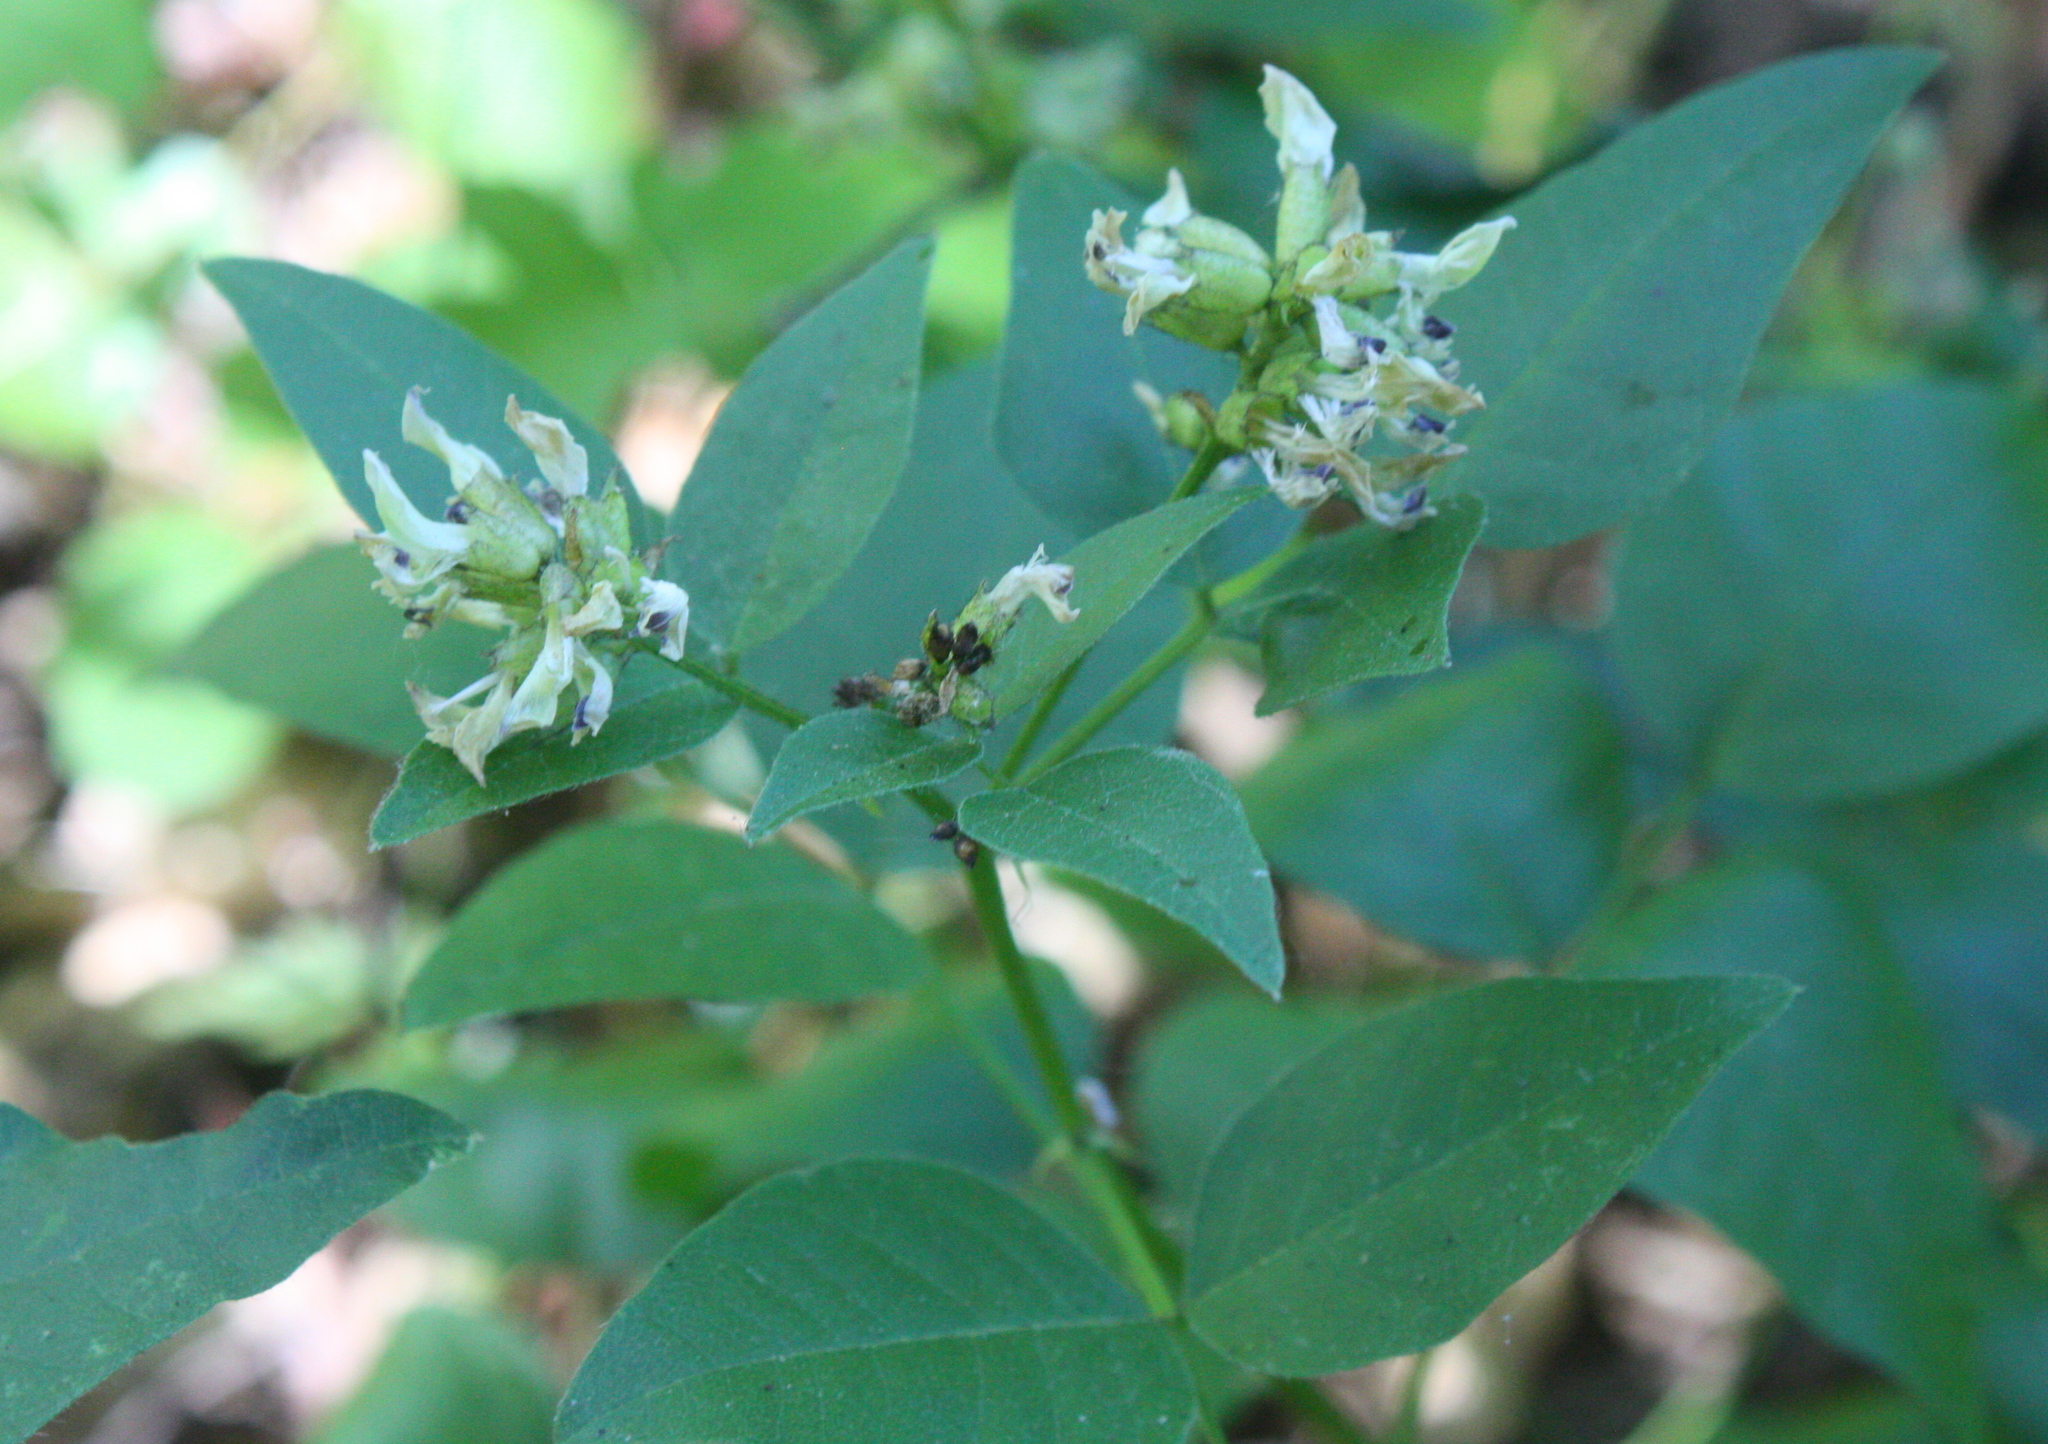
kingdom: Plantae
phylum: Tracheophyta
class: Magnoliopsida
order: Fabales
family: Fabaceae
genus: Rupertia
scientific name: Rupertia physodes
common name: California-tea
